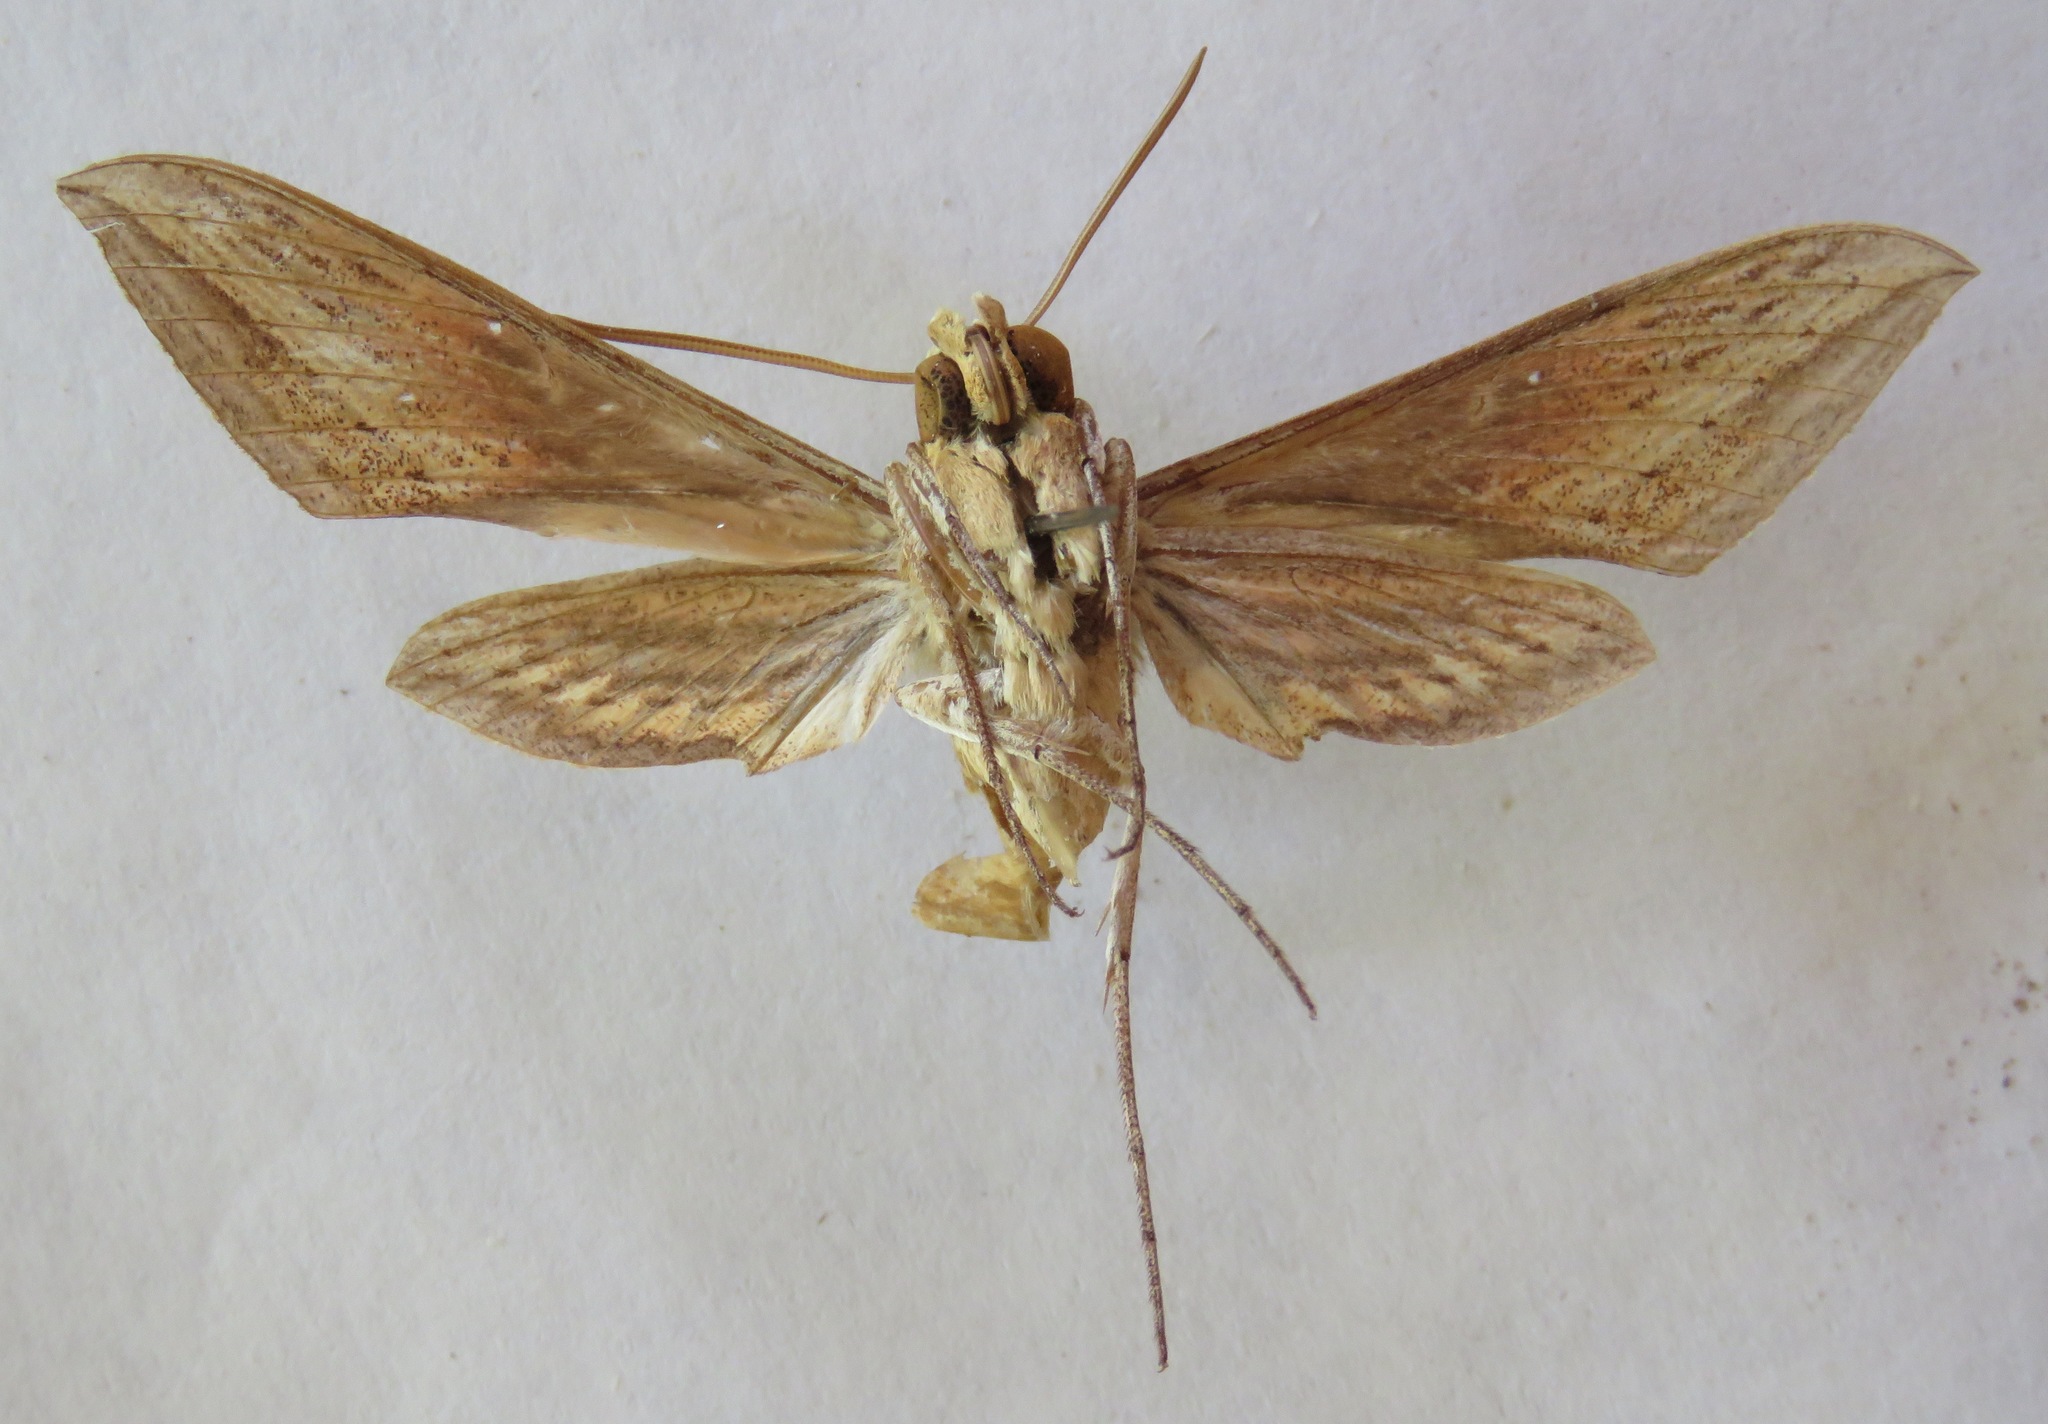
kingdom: Animalia
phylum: Arthropoda
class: Insecta
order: Lepidoptera
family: Sphingidae
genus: Xylophanes
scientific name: Xylophanes tersa
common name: Tersa sphinx
